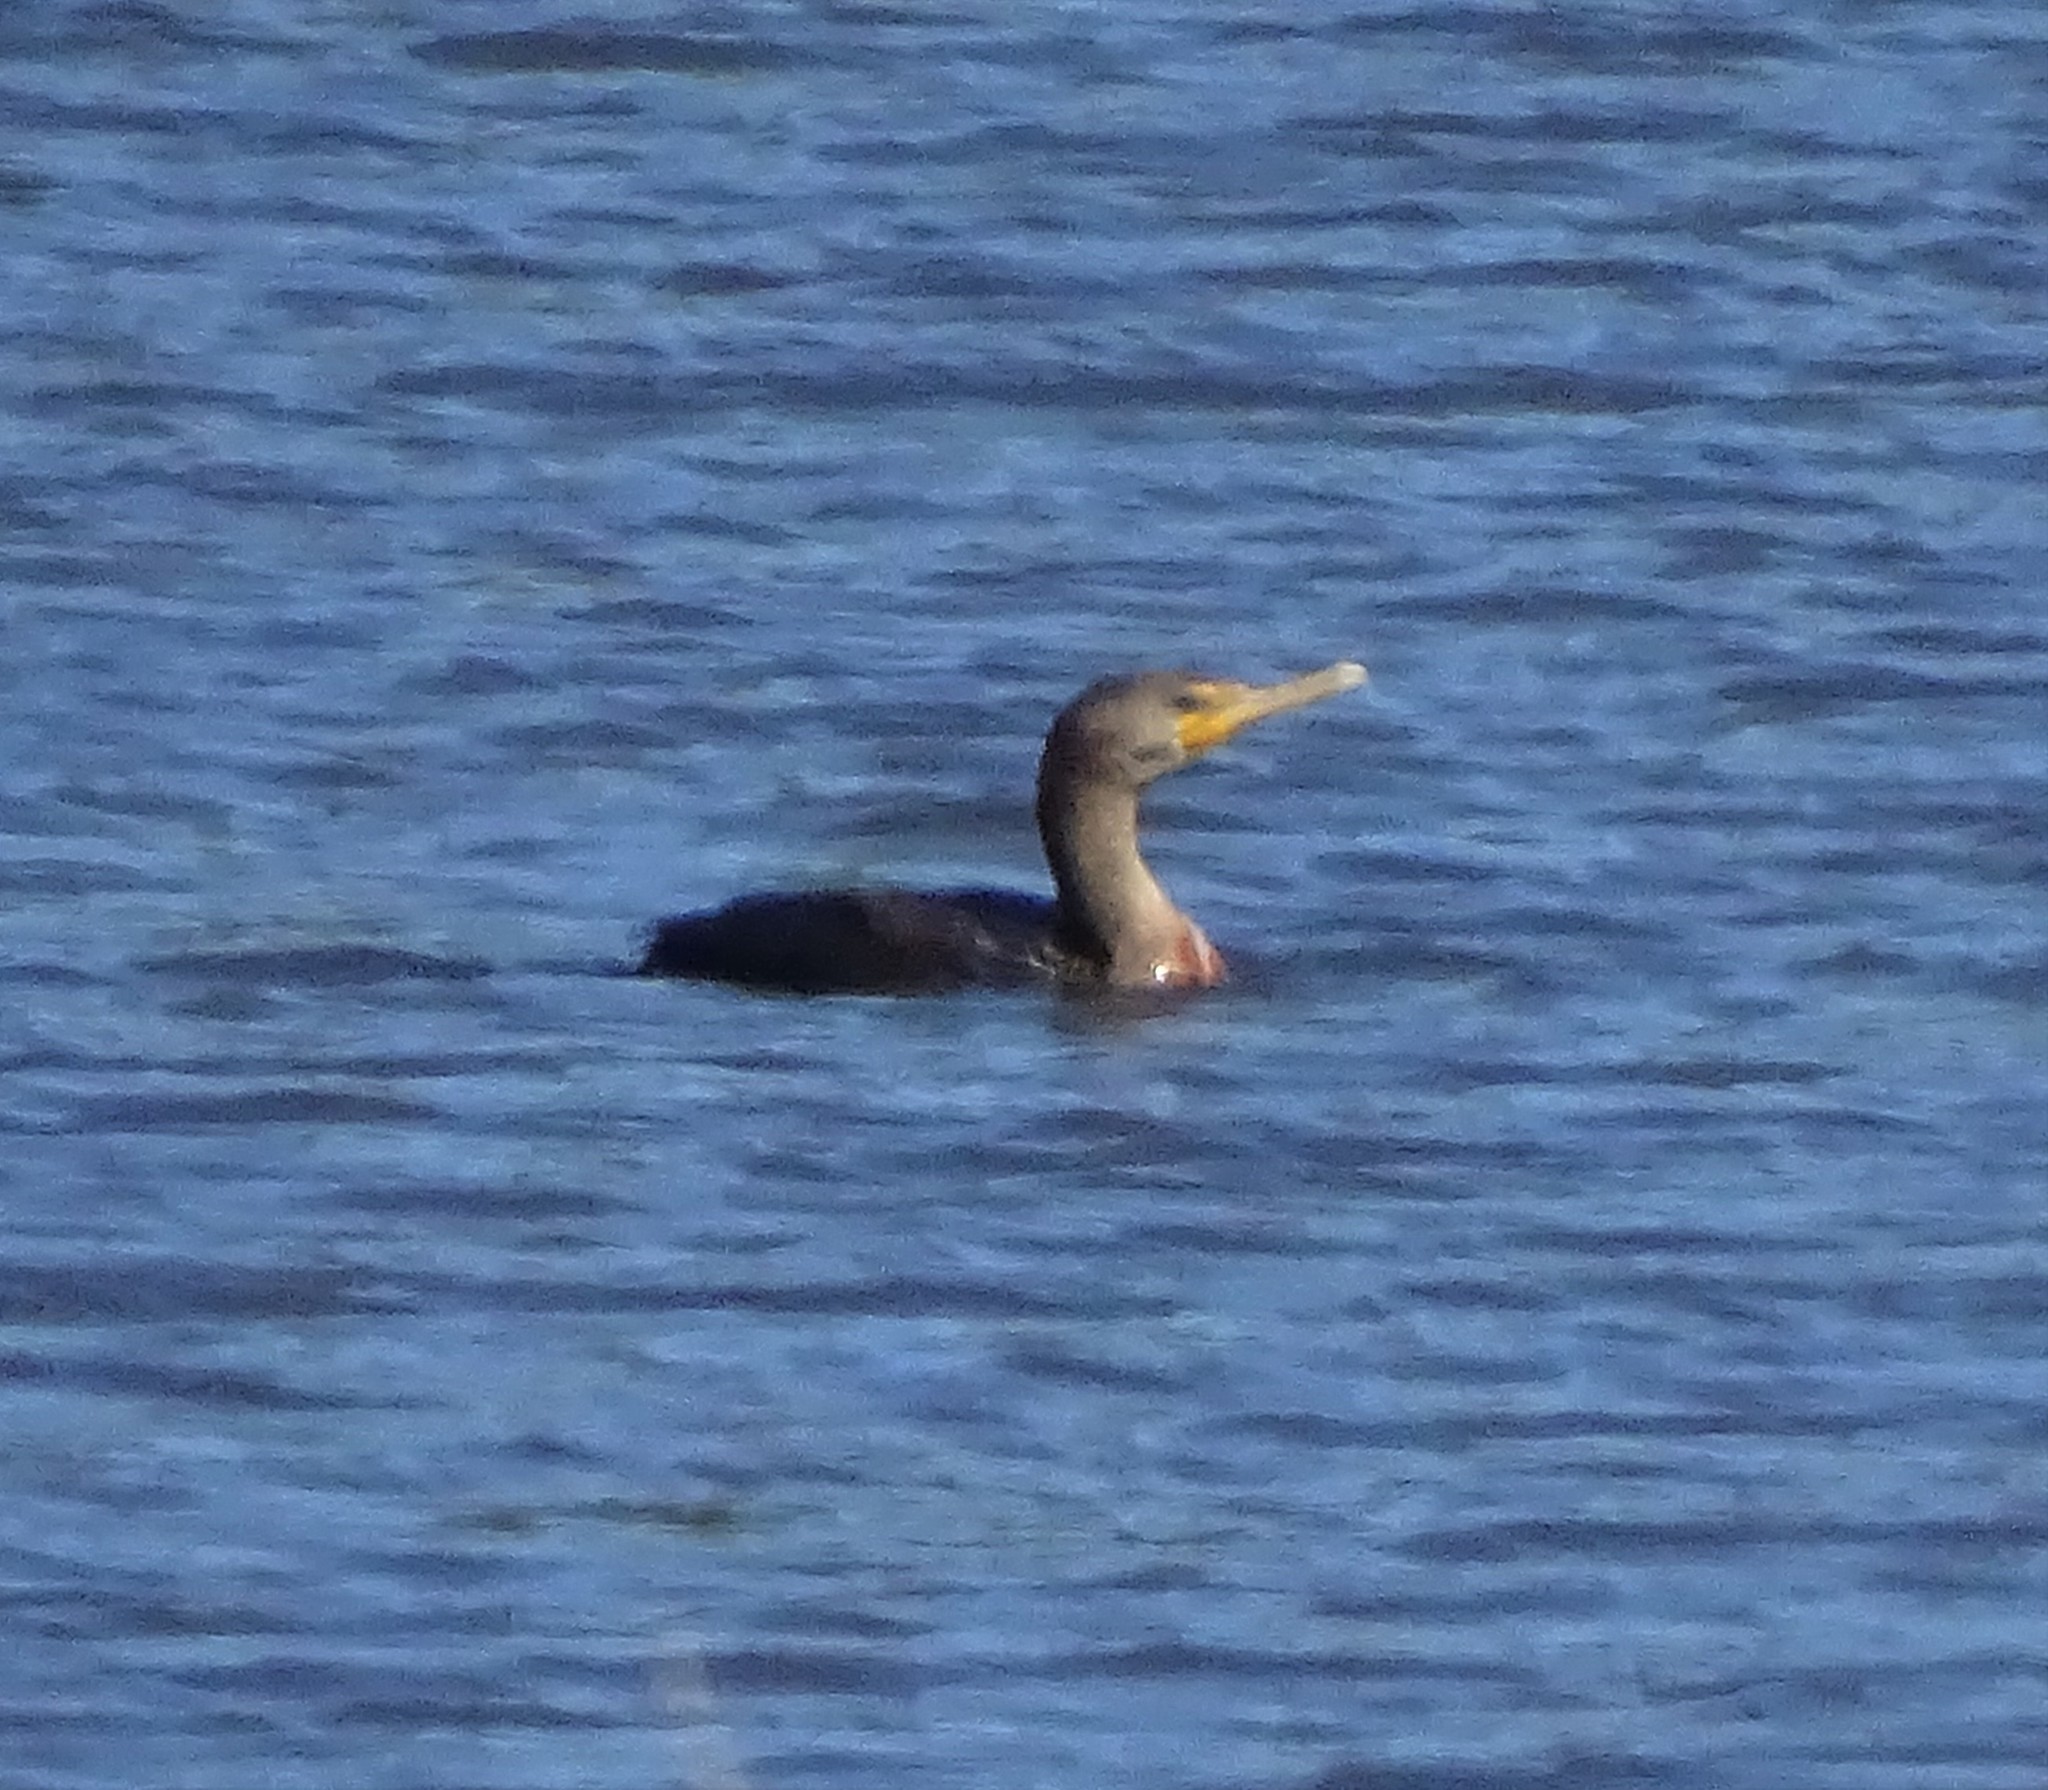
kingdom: Animalia
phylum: Chordata
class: Aves
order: Suliformes
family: Phalacrocoracidae
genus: Phalacrocorax
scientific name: Phalacrocorax auritus
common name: Double-crested cormorant
